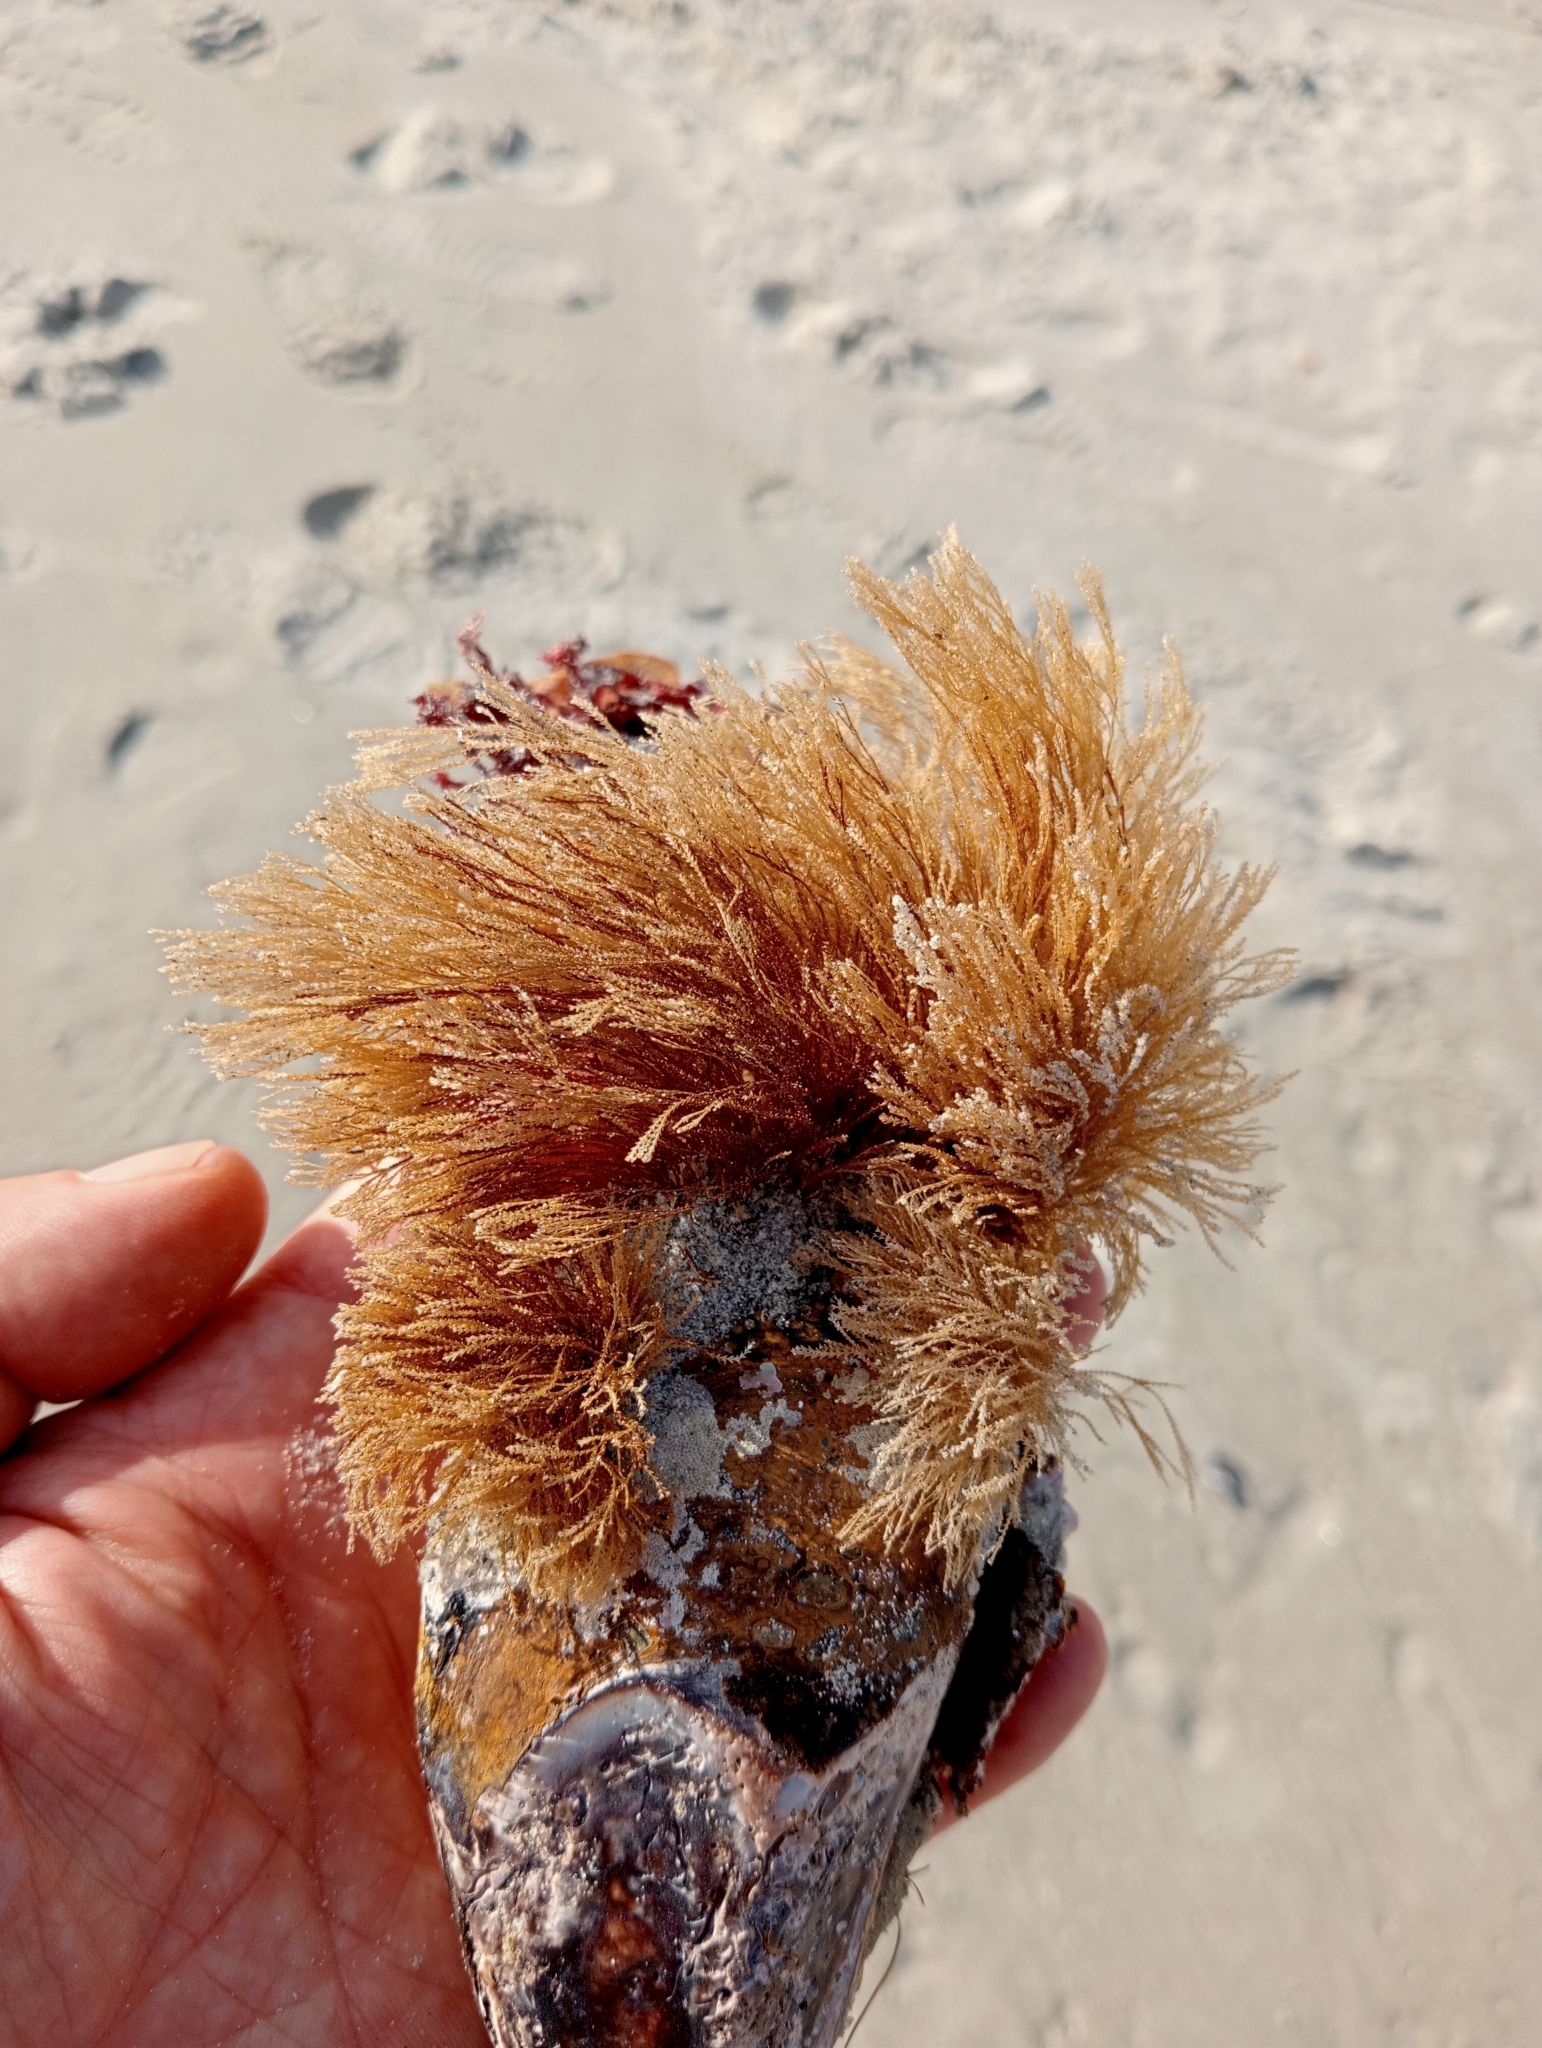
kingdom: Animalia
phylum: Cnidaria
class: Hydrozoa
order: Leptothecata
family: Sertulariidae
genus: Amphisbetia
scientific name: Amphisbetia bispinosa
